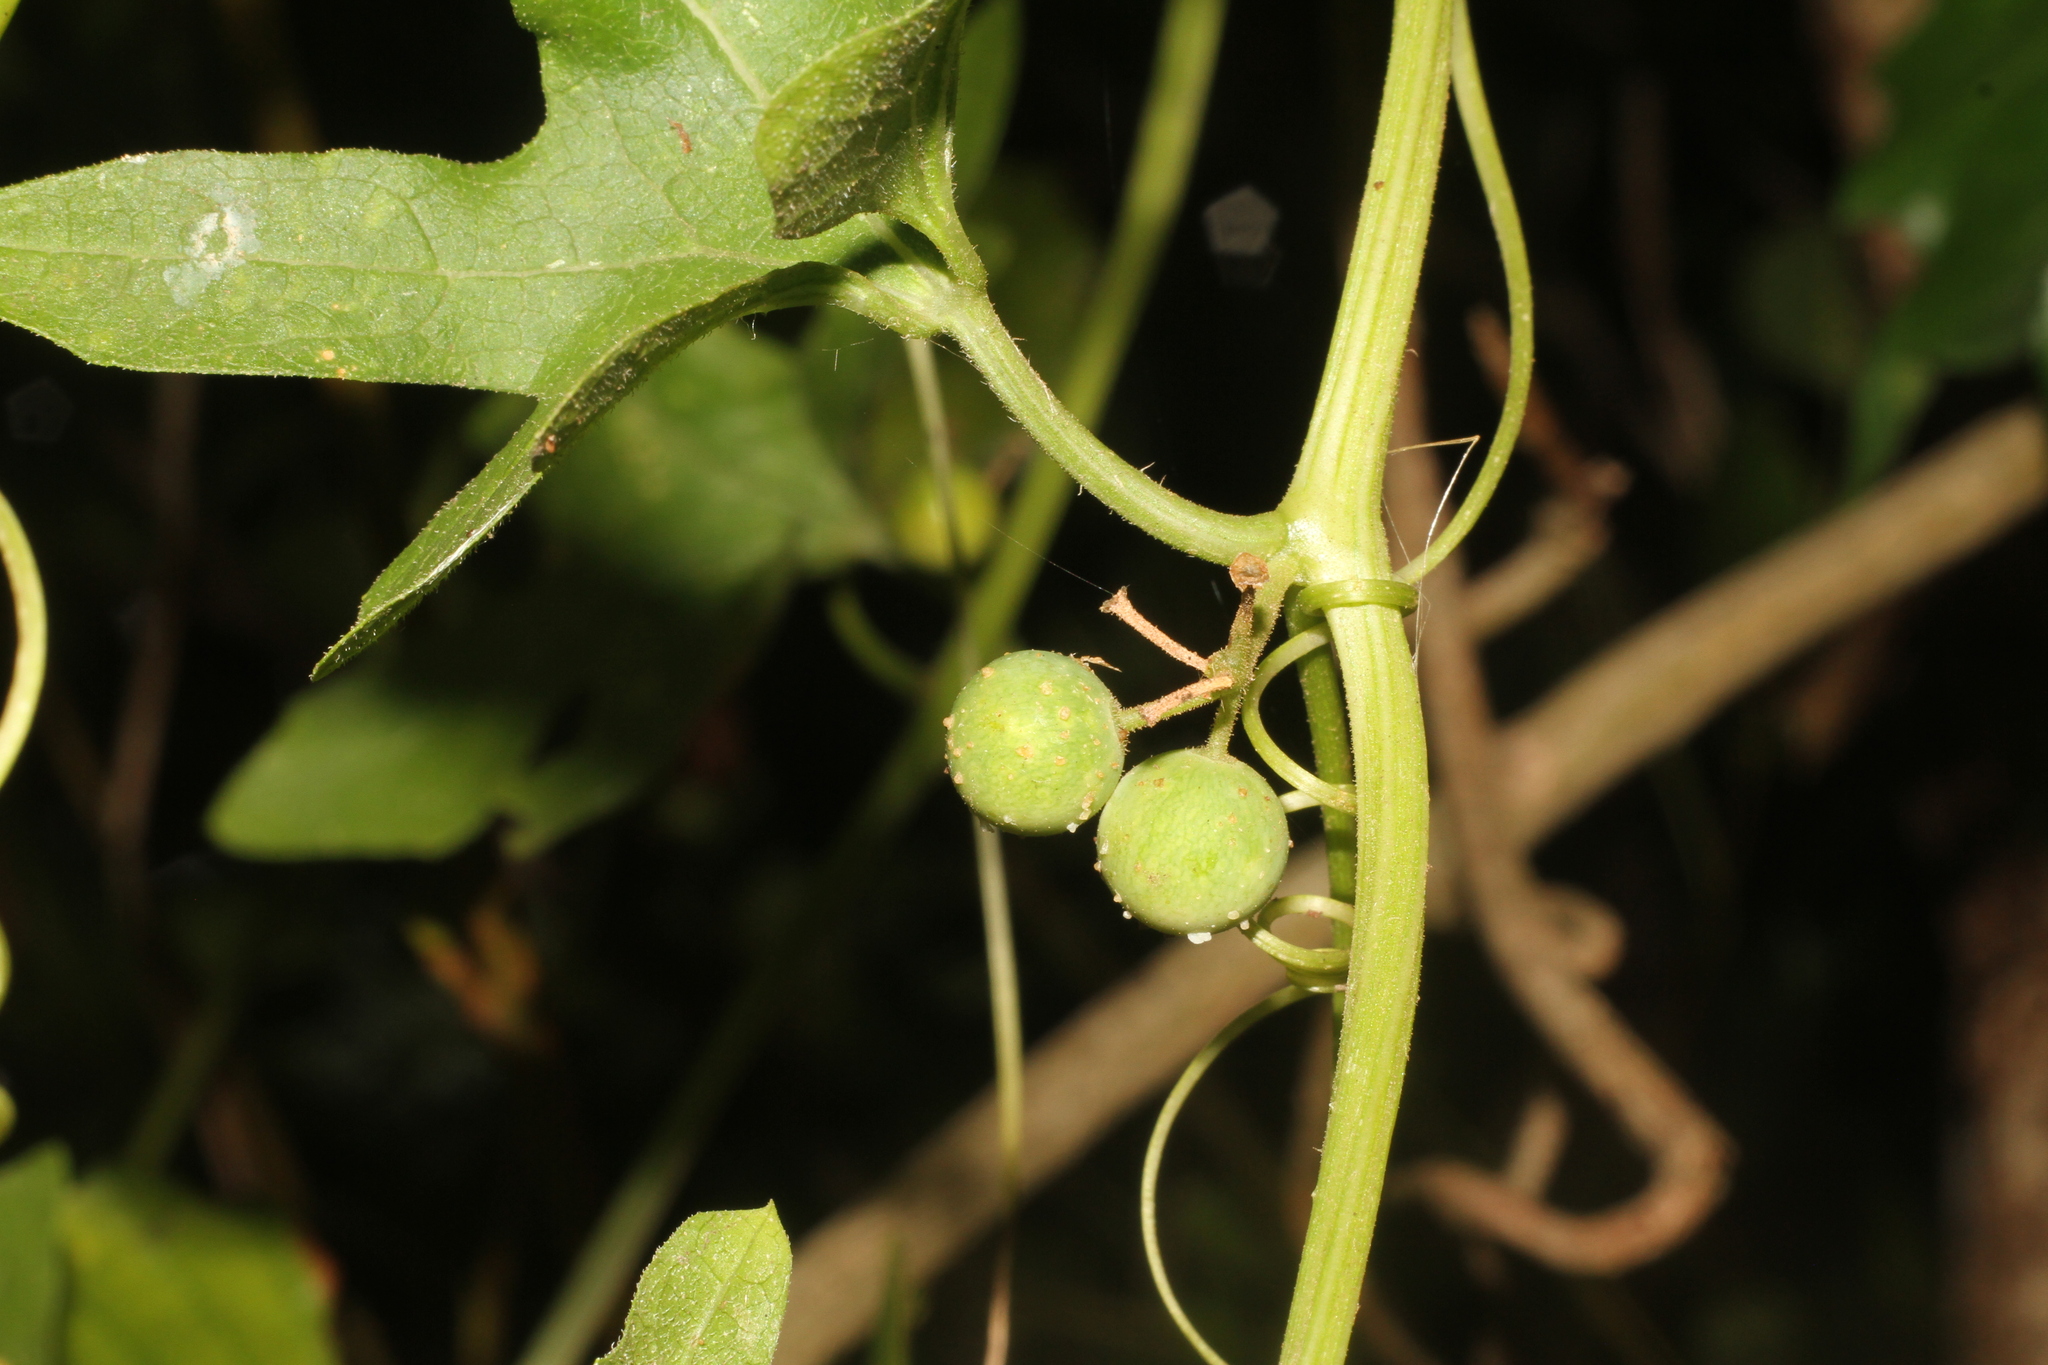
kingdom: Plantae
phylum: Tracheophyta
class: Magnoliopsida
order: Cucurbitales
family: Cucurbitaceae
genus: Bryonia
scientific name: Bryonia cretica
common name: Cretan bryony
